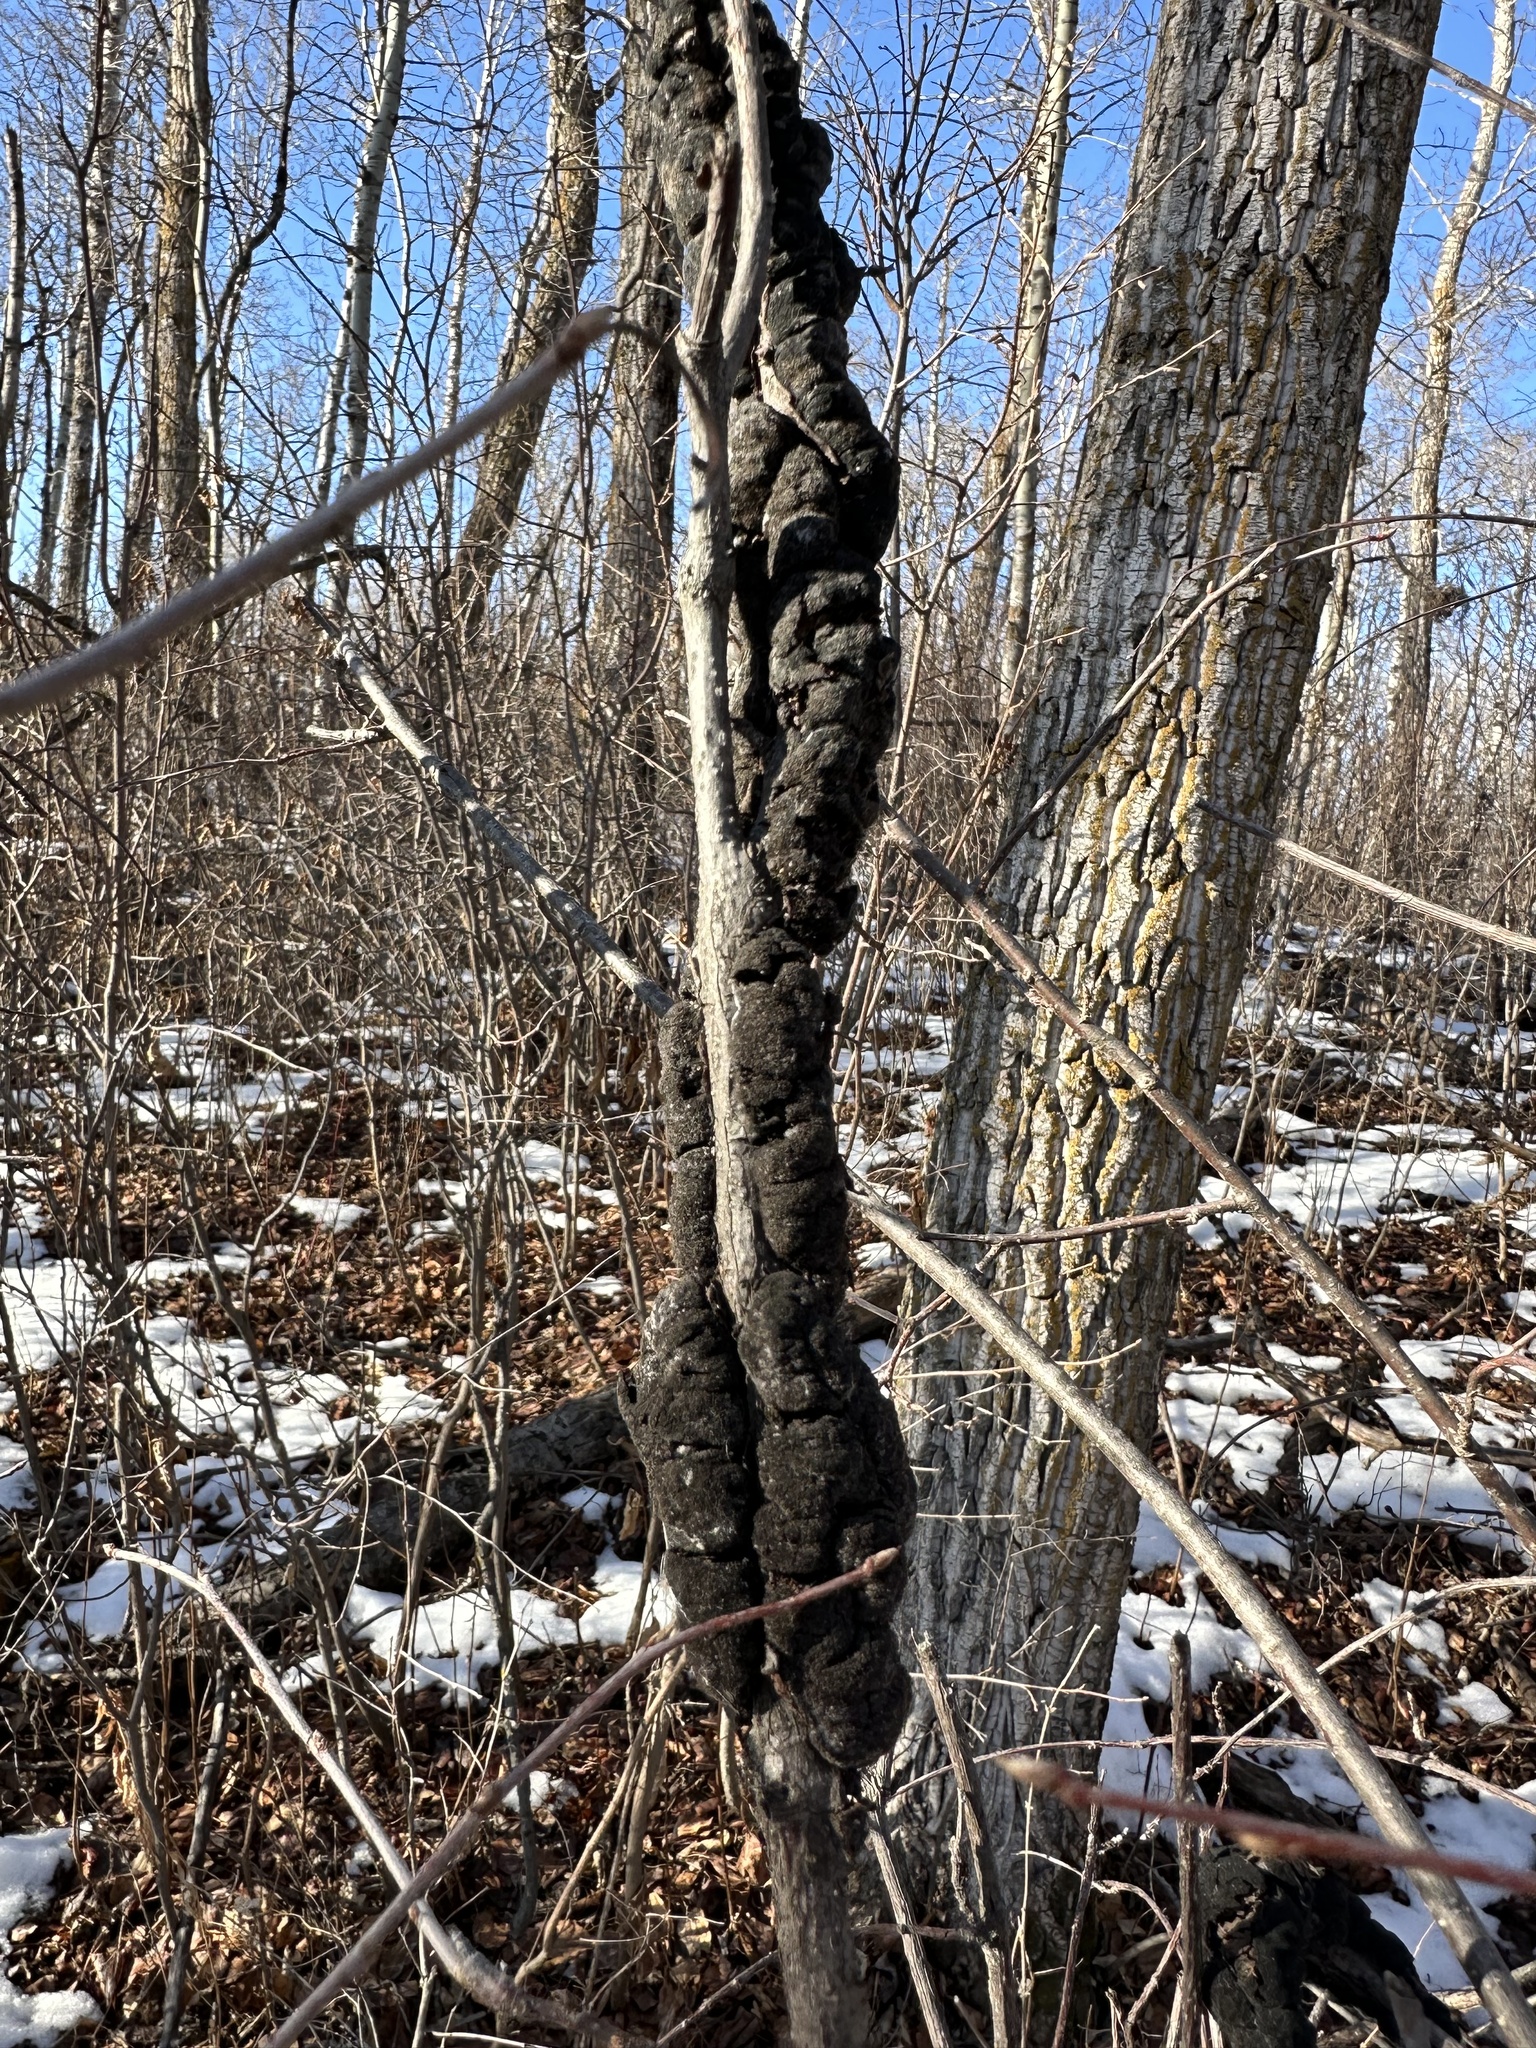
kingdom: Fungi
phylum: Ascomycota
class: Dothideomycetes
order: Venturiales
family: Venturiaceae
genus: Apiosporina
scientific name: Apiosporina morbosa
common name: Black knot
